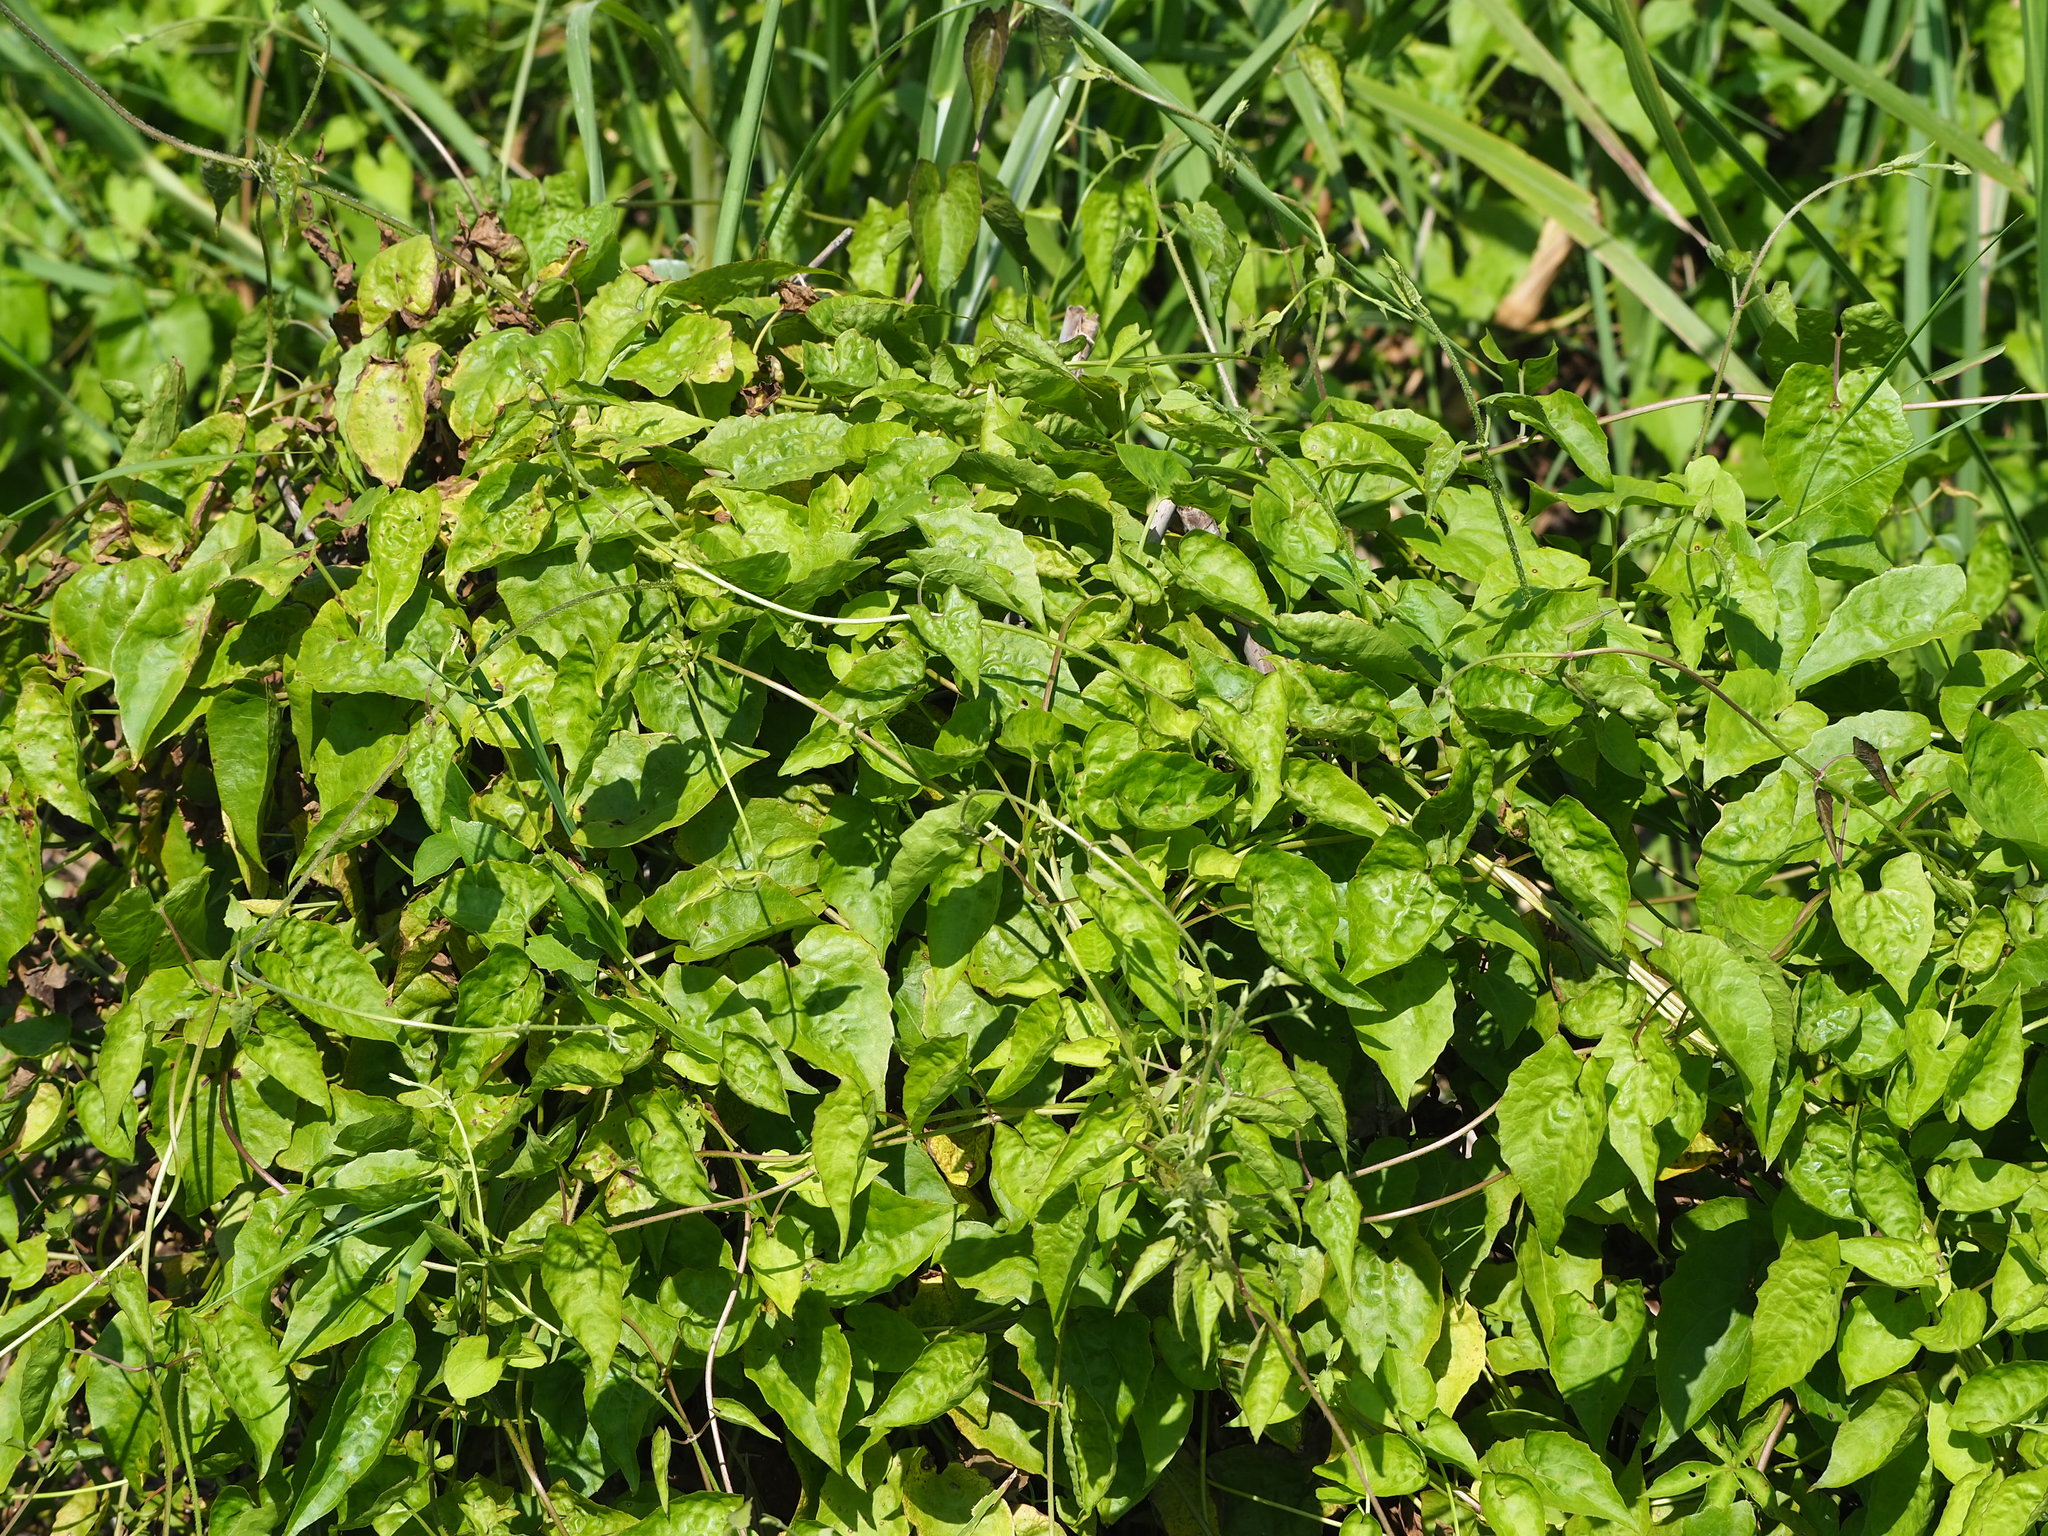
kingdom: Plantae
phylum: Tracheophyta
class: Magnoliopsida
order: Asterales
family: Asteraceae
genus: Mikania
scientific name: Mikania micrantha
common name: Mile-a-minute
